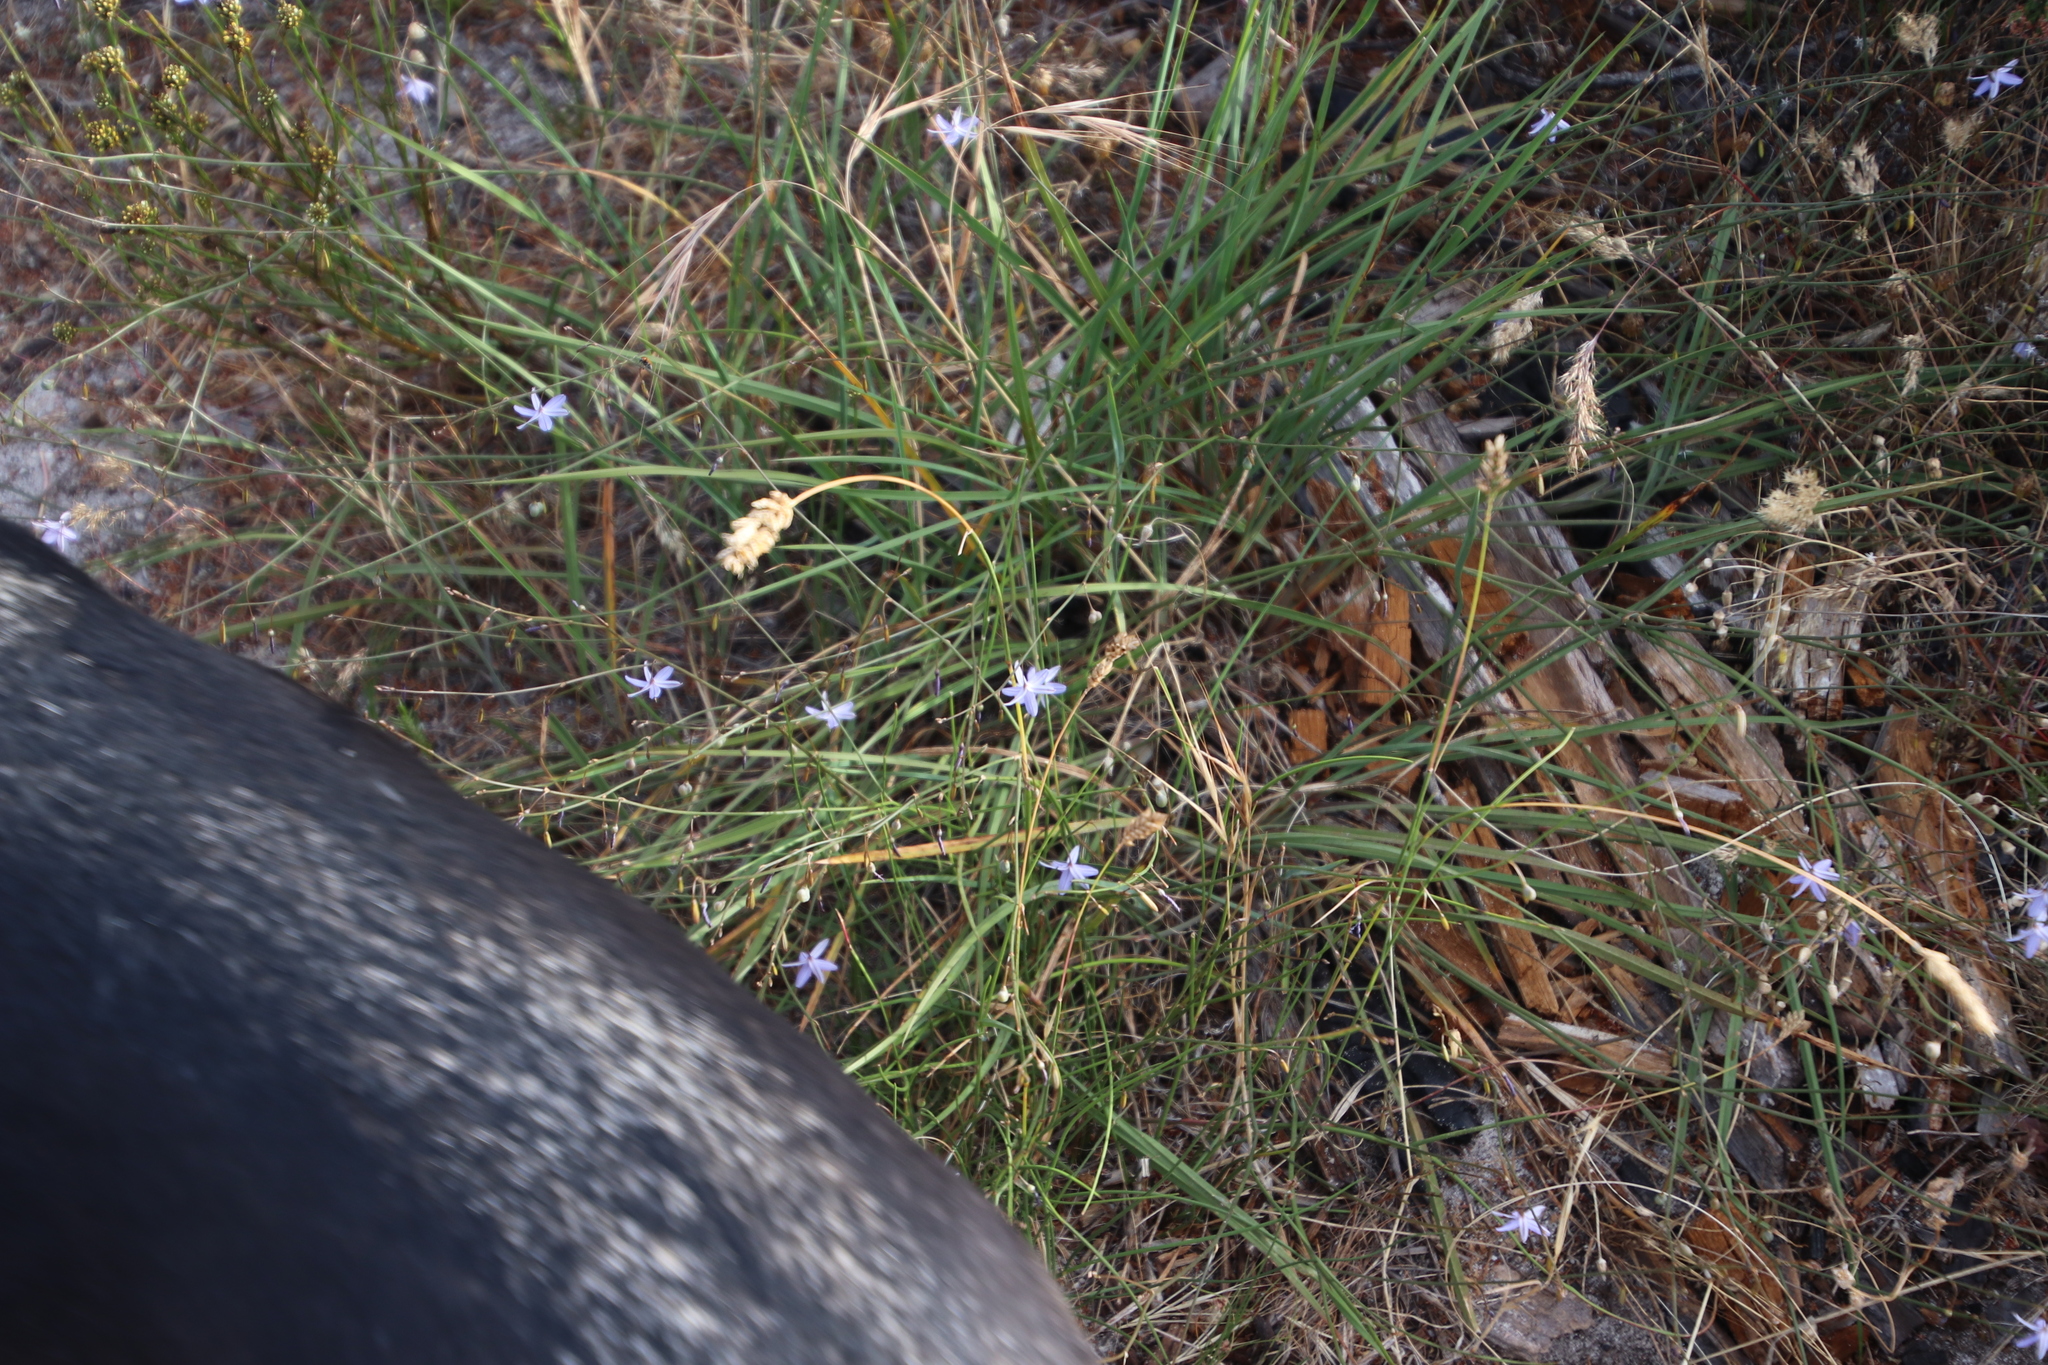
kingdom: Plantae
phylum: Tracheophyta
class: Liliopsida
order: Asparagales
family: Asphodelaceae
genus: Caesia
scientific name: Caesia contorta
